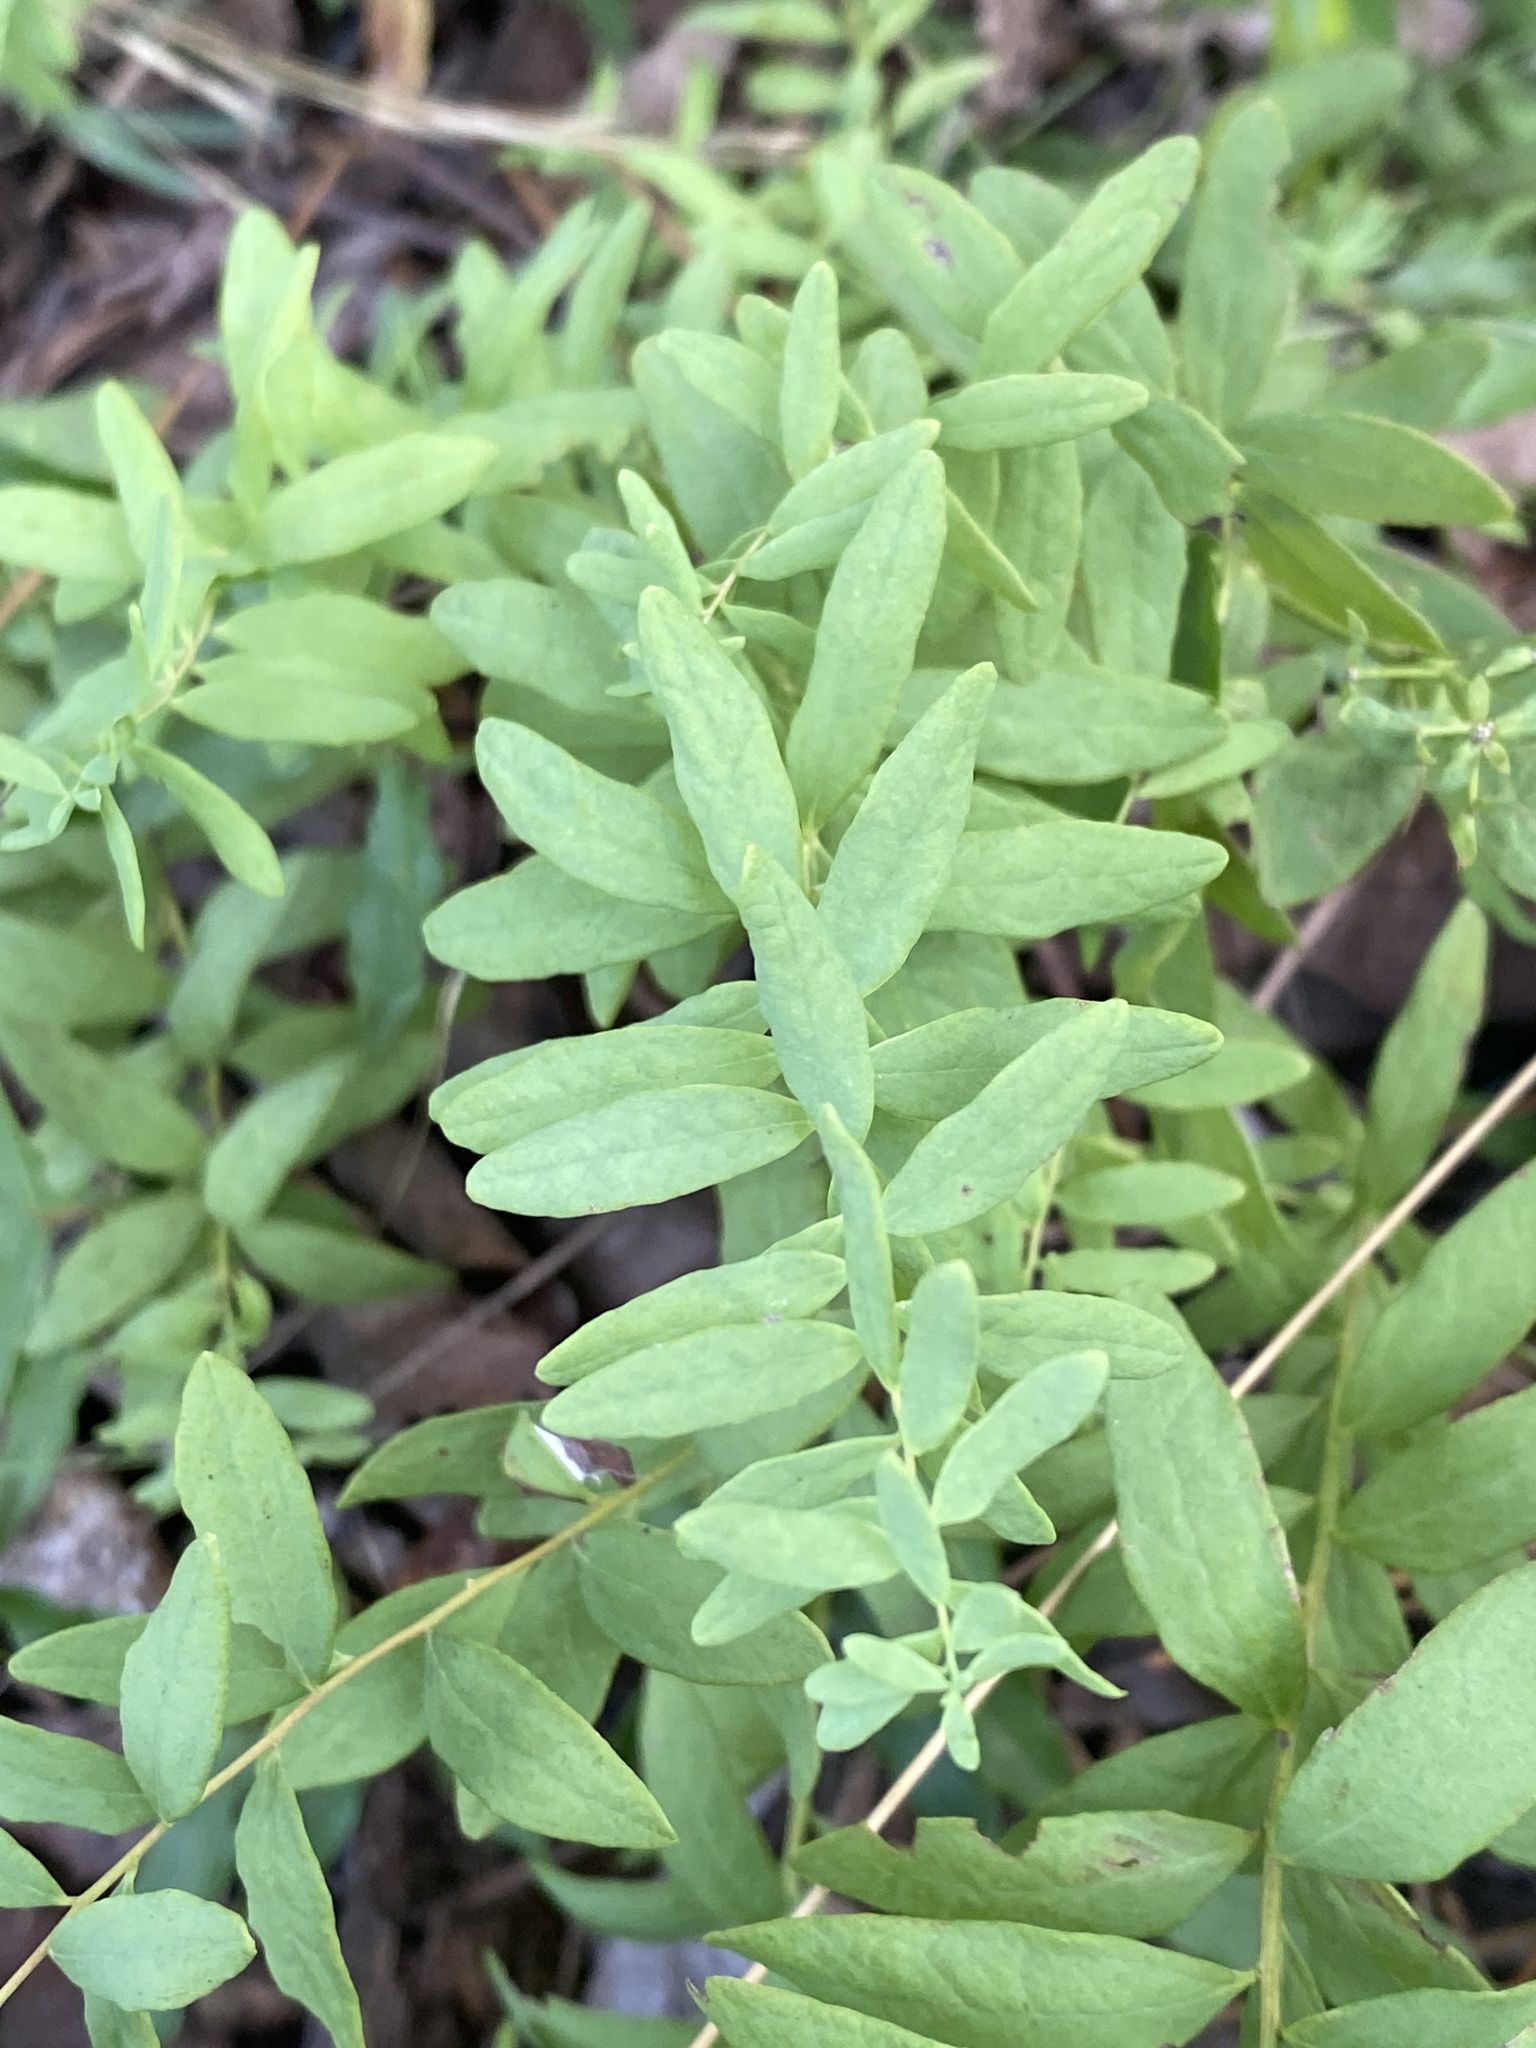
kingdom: Plantae
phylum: Tracheophyta
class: Magnoliopsida
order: Santalales
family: Comandraceae
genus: Comandra
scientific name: Comandra umbellata
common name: Bastard toadflax
